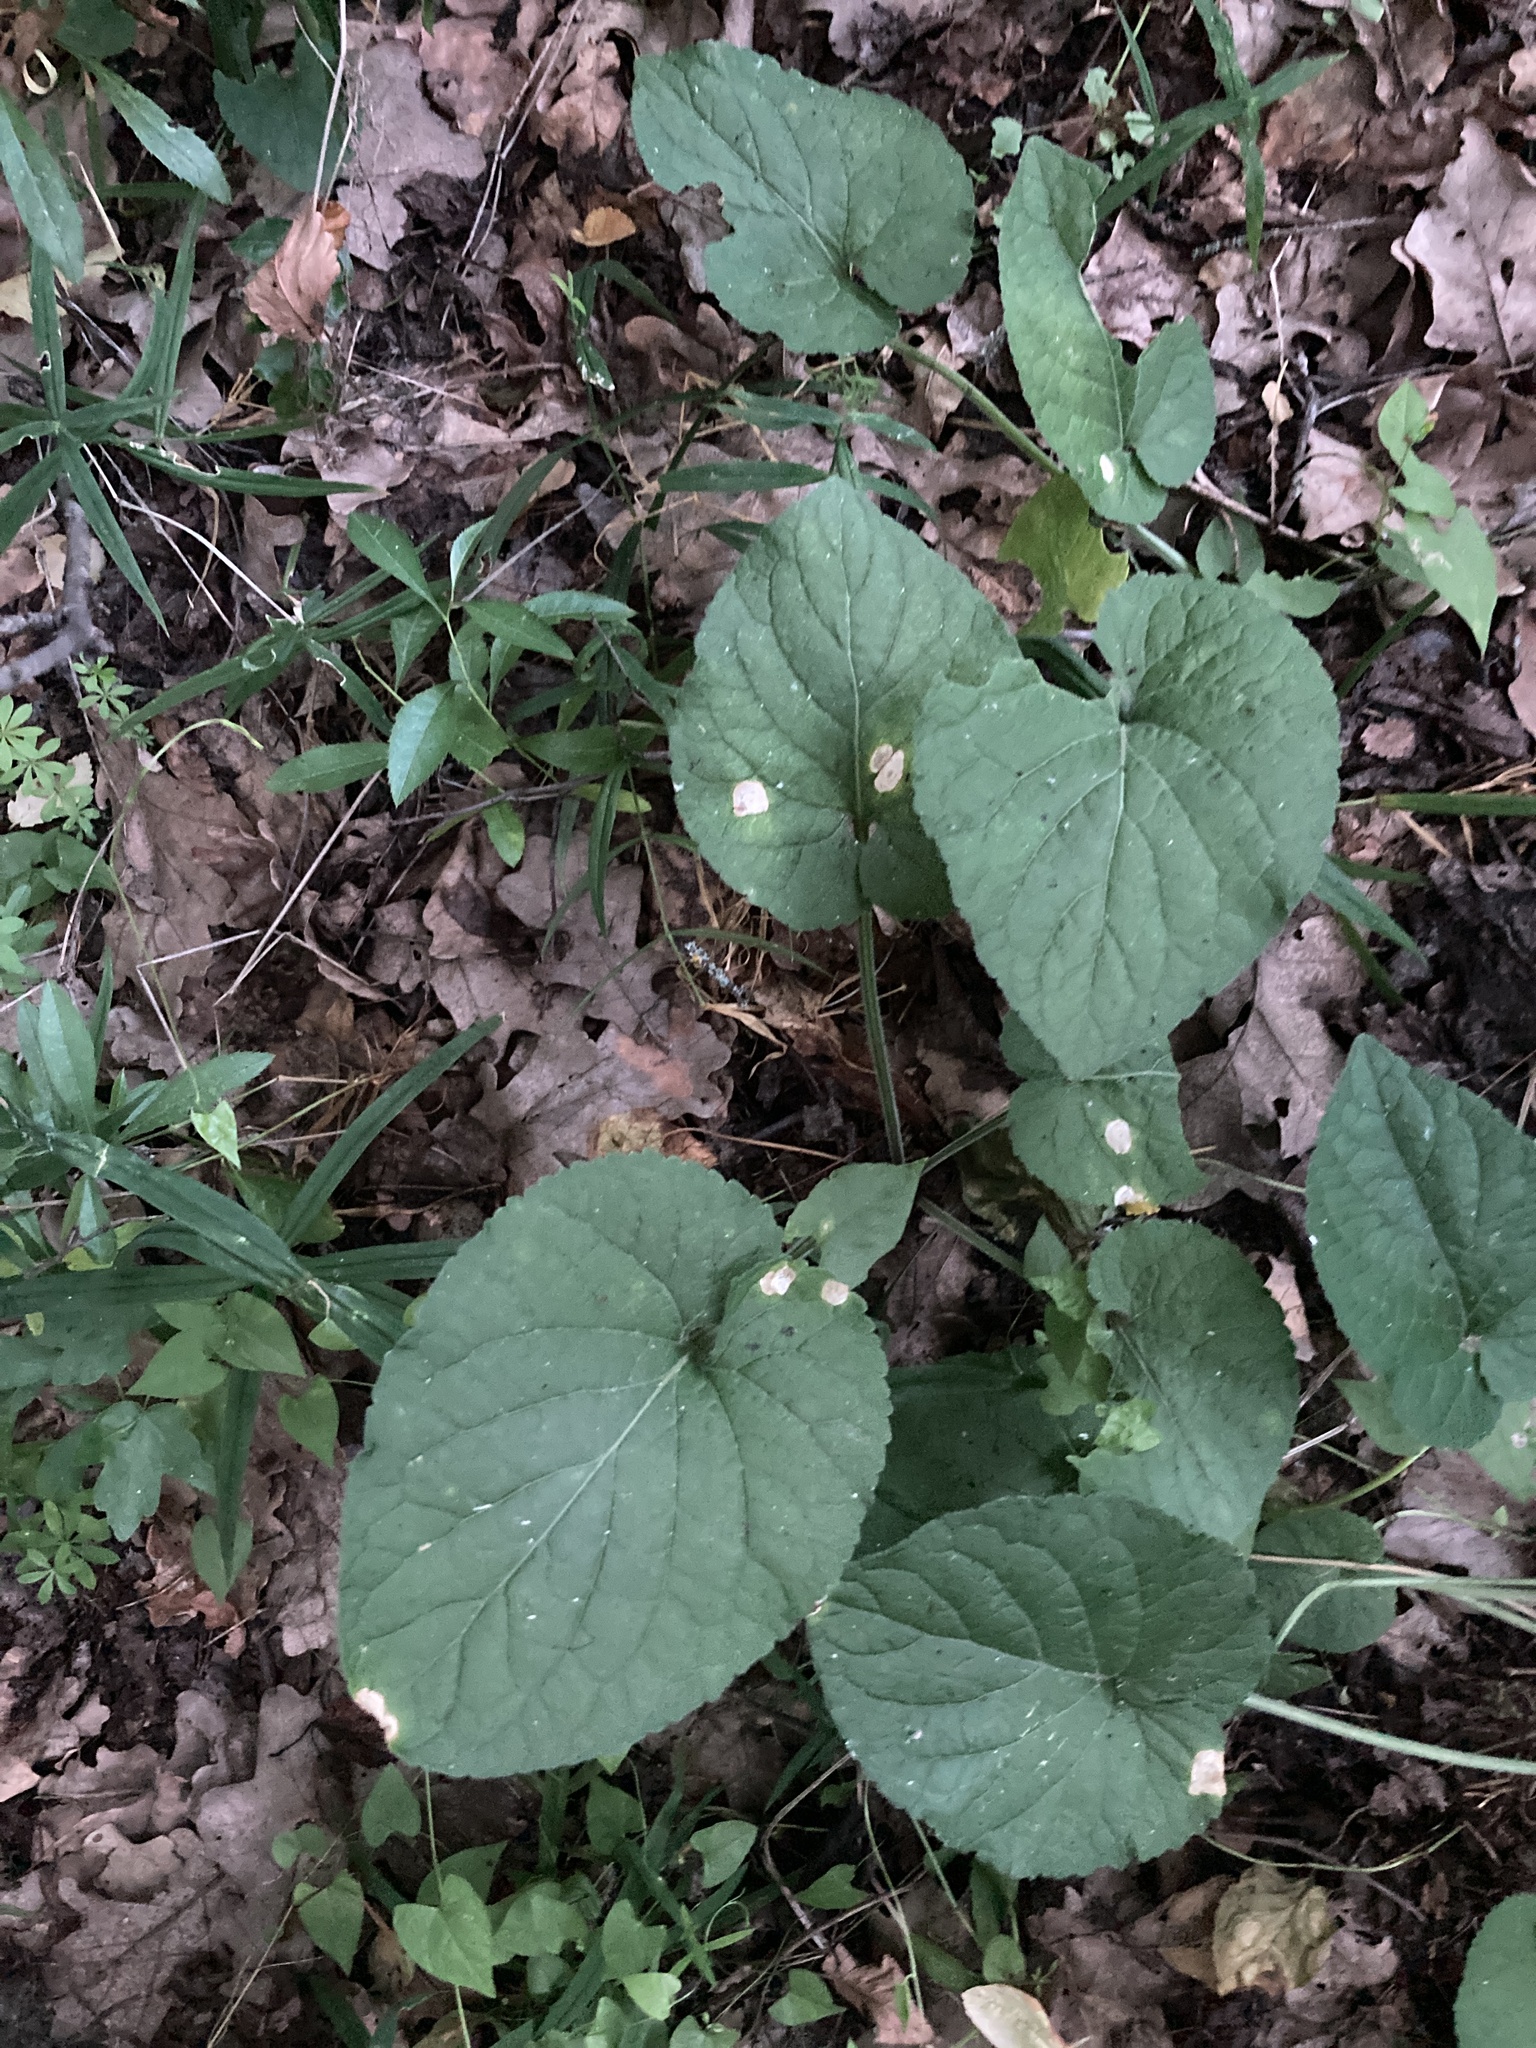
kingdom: Plantae
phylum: Tracheophyta
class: Magnoliopsida
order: Malpighiales
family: Violaceae
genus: Viola
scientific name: Viola suavis
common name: Russian violet
